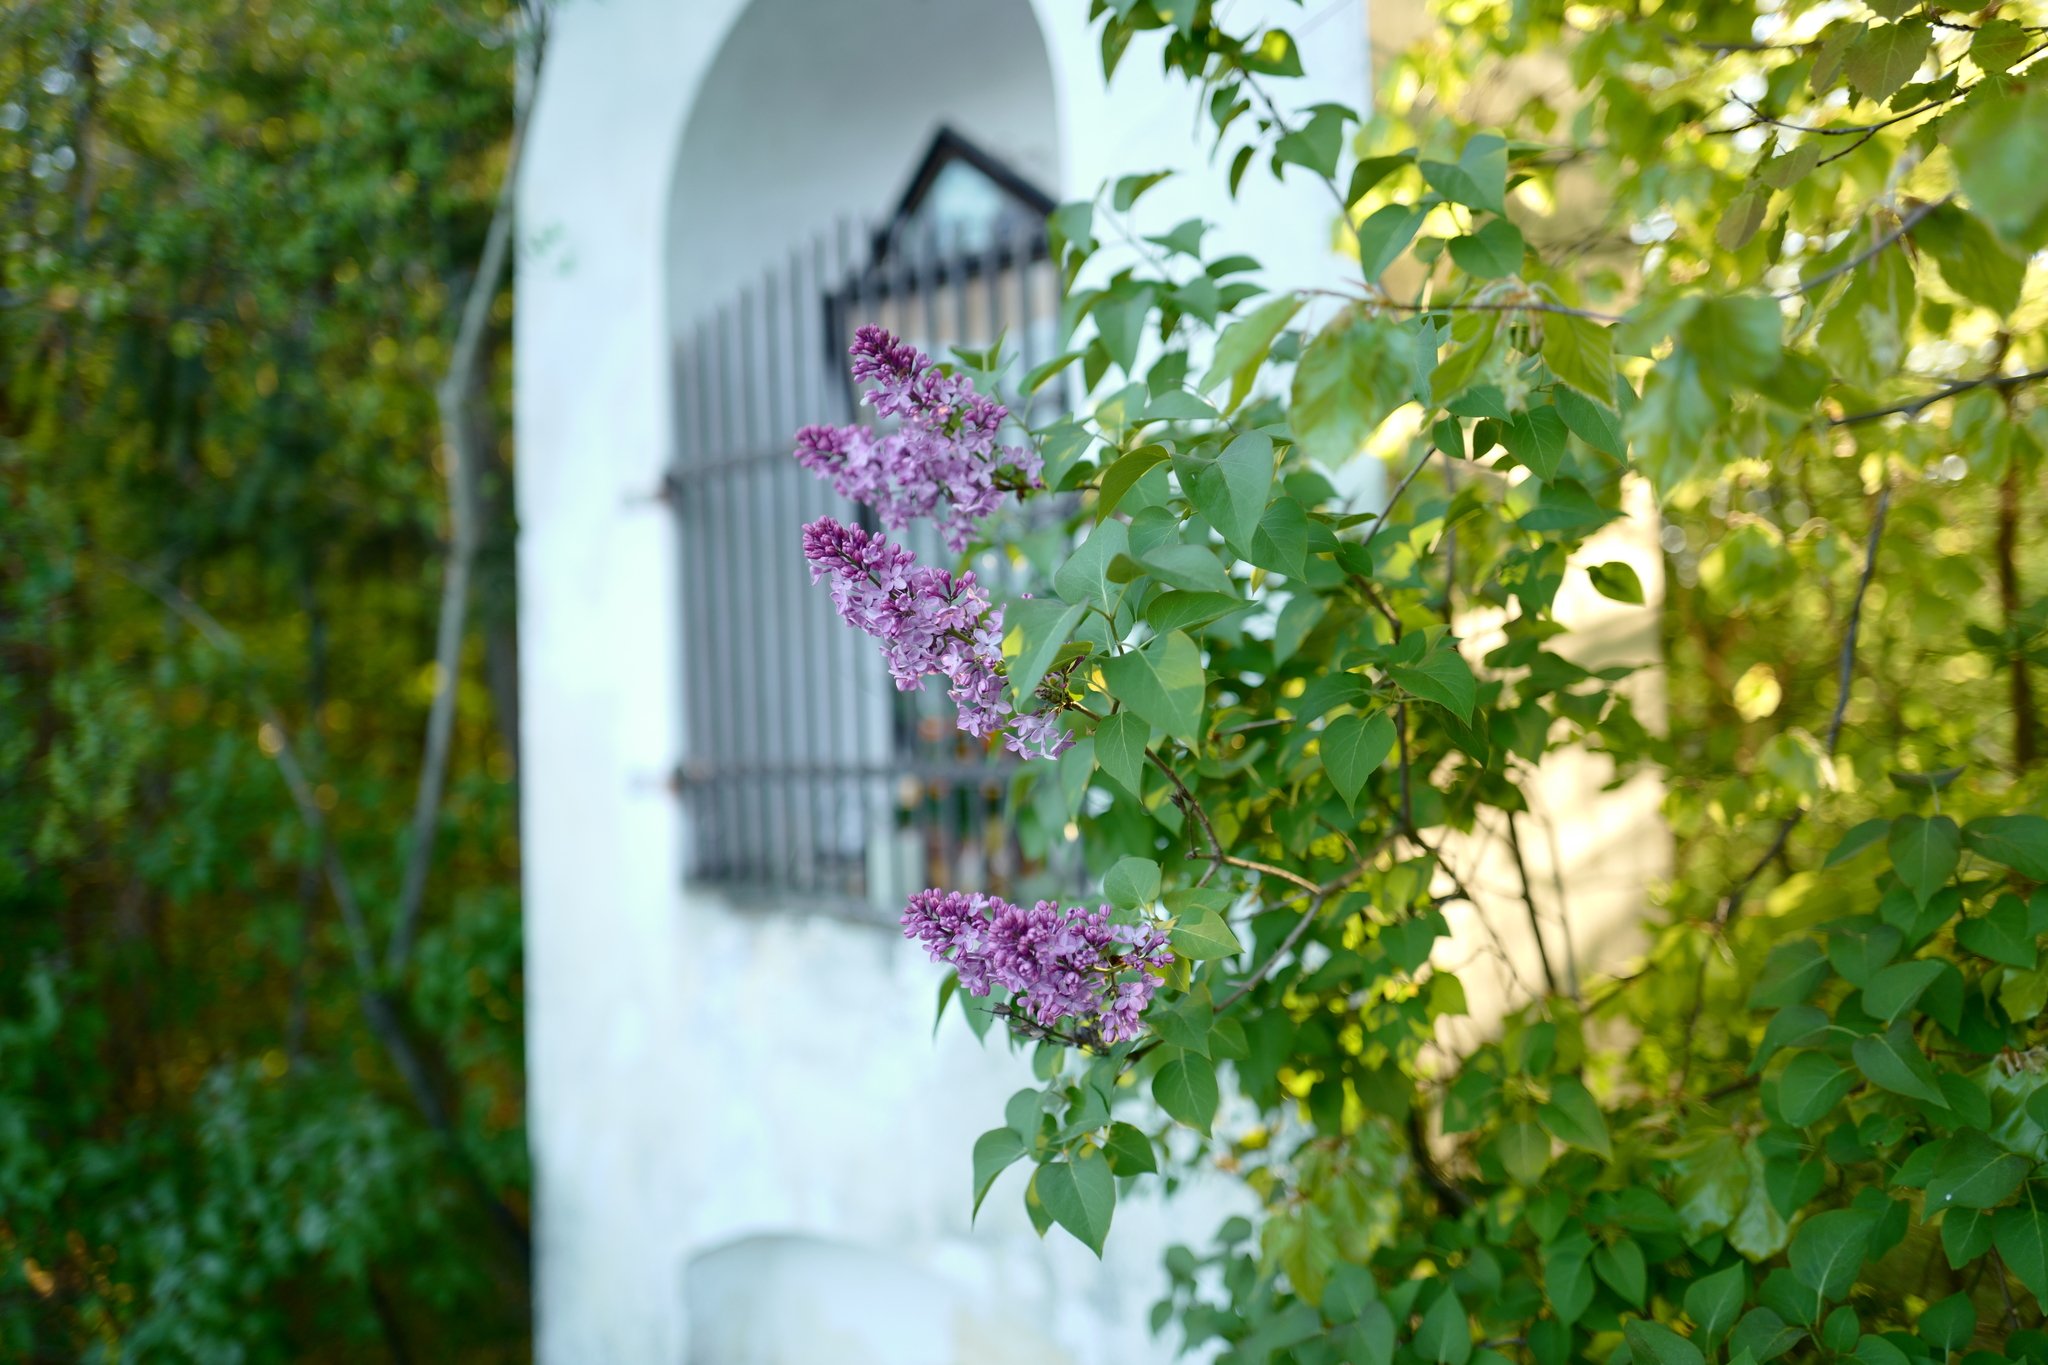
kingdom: Plantae
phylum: Tracheophyta
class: Magnoliopsida
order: Lamiales
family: Oleaceae
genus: Syringa
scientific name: Syringa vulgaris
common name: Common lilac
